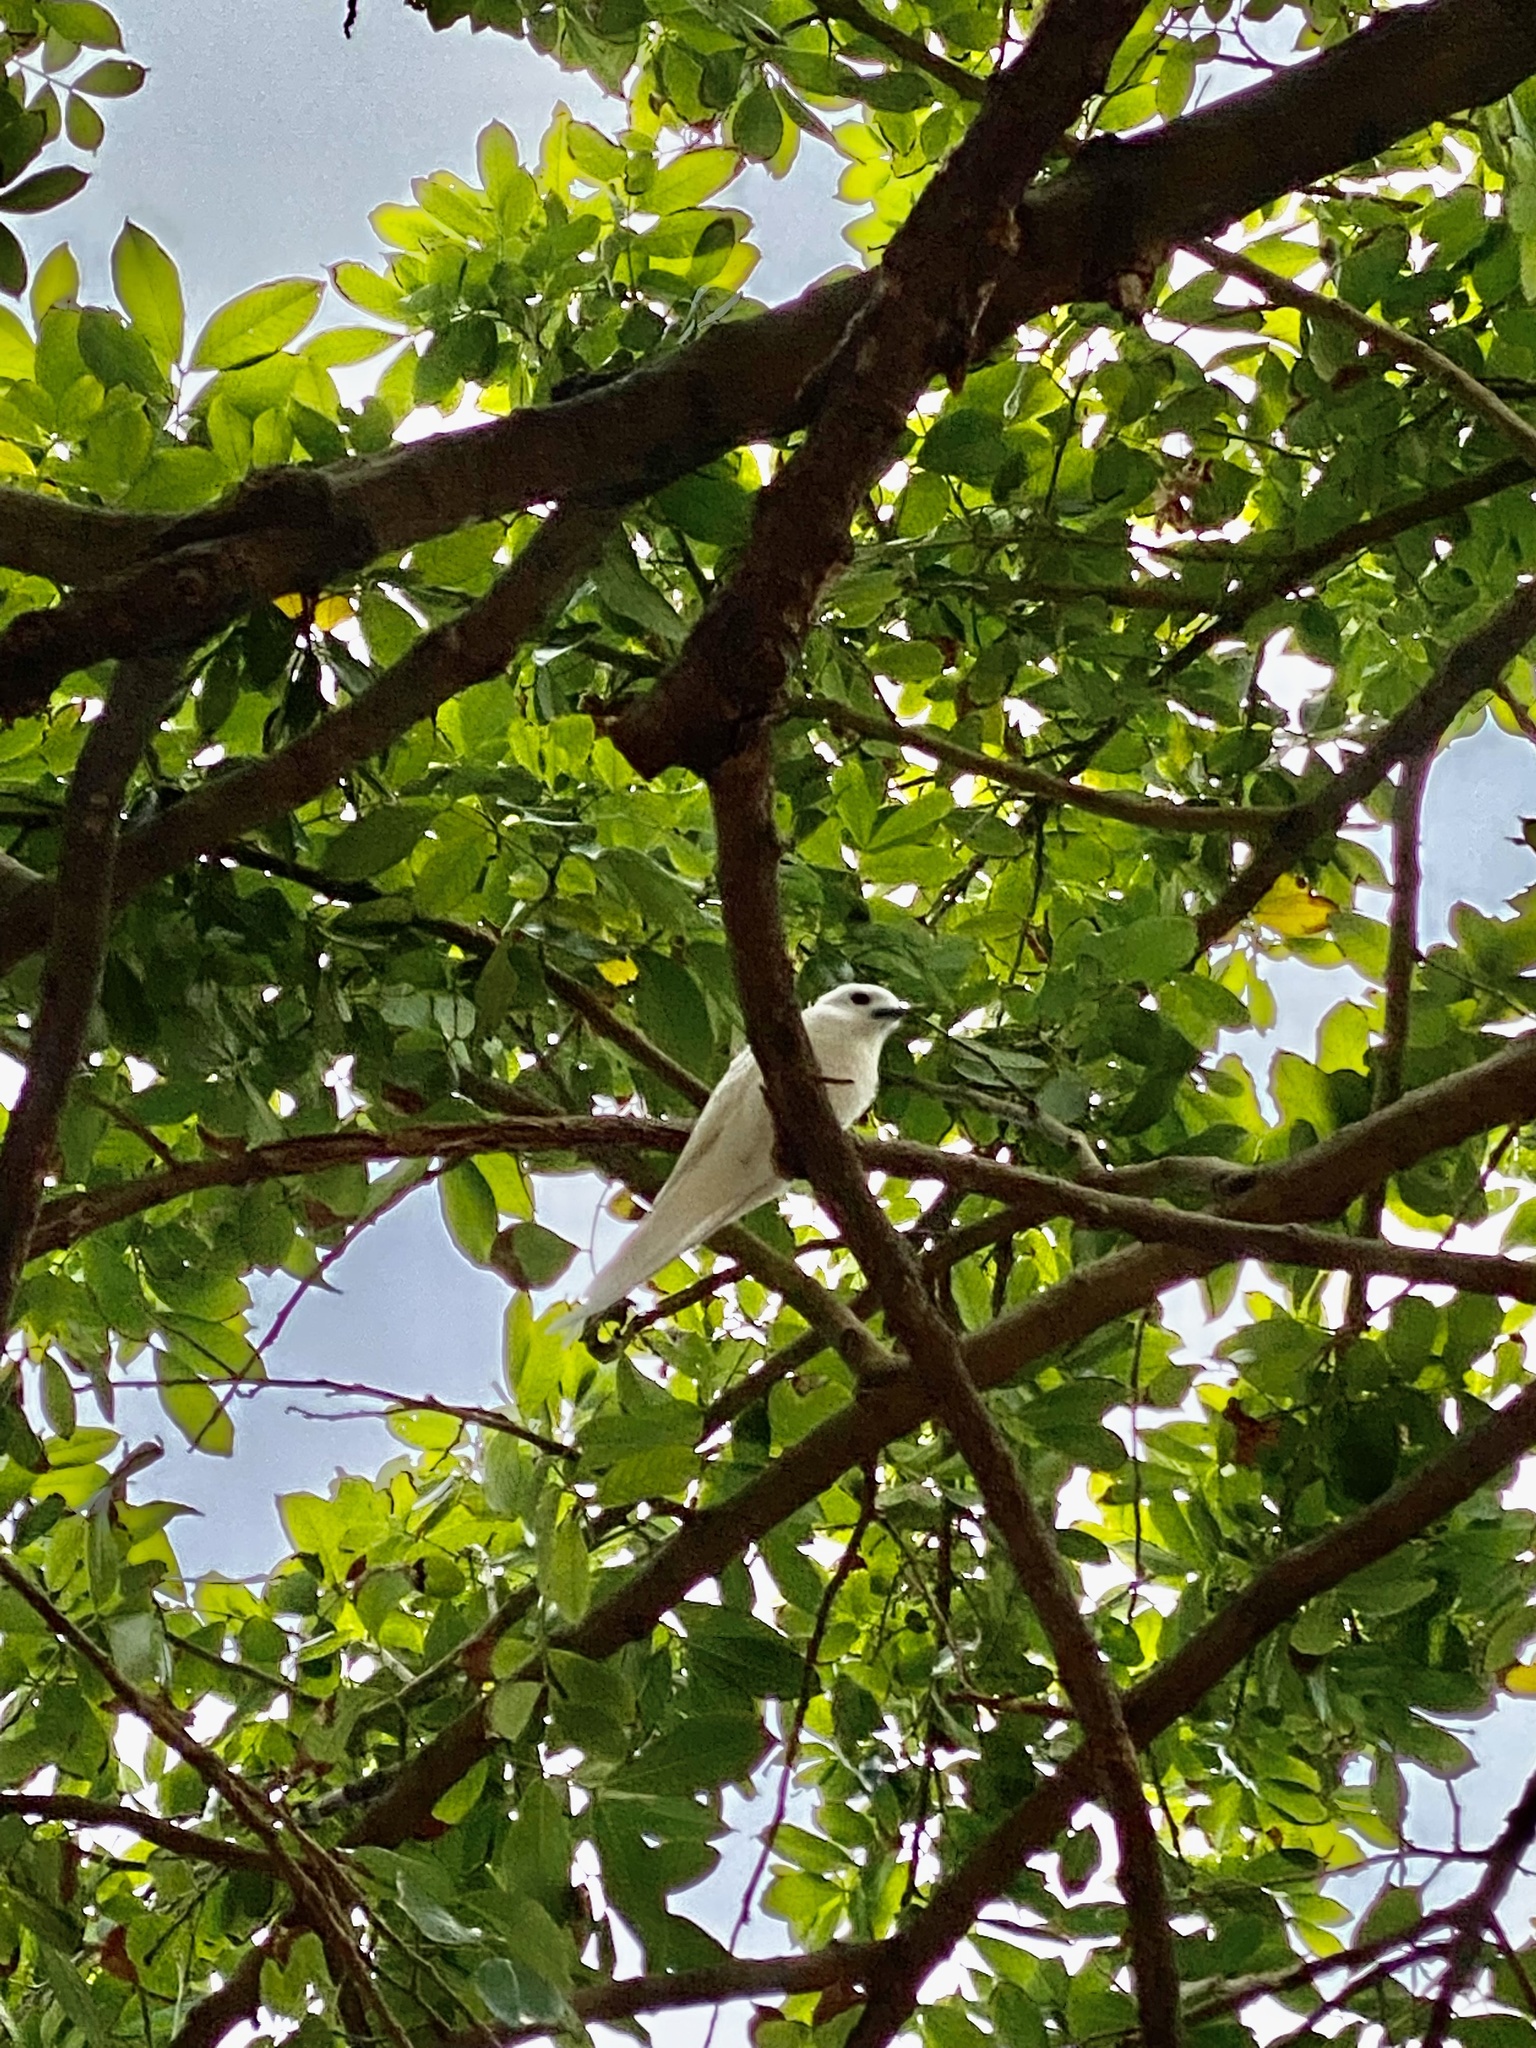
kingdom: Animalia
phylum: Chordata
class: Aves
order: Charadriiformes
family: Laridae
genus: Gygis
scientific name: Gygis alba
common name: White tern
